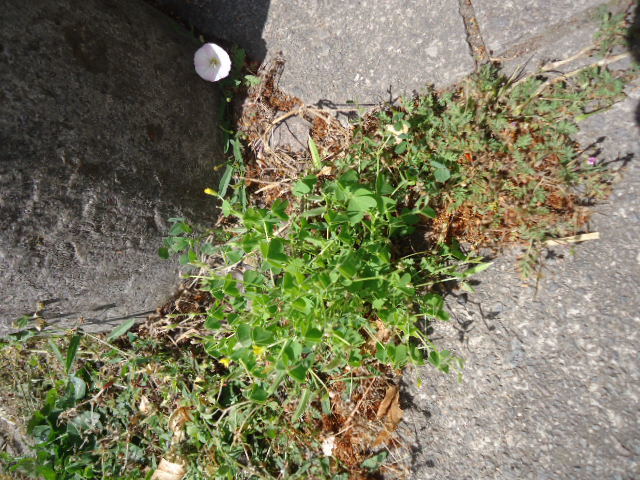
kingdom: Plantae
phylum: Tracheophyta
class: Magnoliopsida
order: Oxalidales
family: Oxalidaceae
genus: Oxalis
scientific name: Oxalis dillenii
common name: Sussex yellow-sorrel
